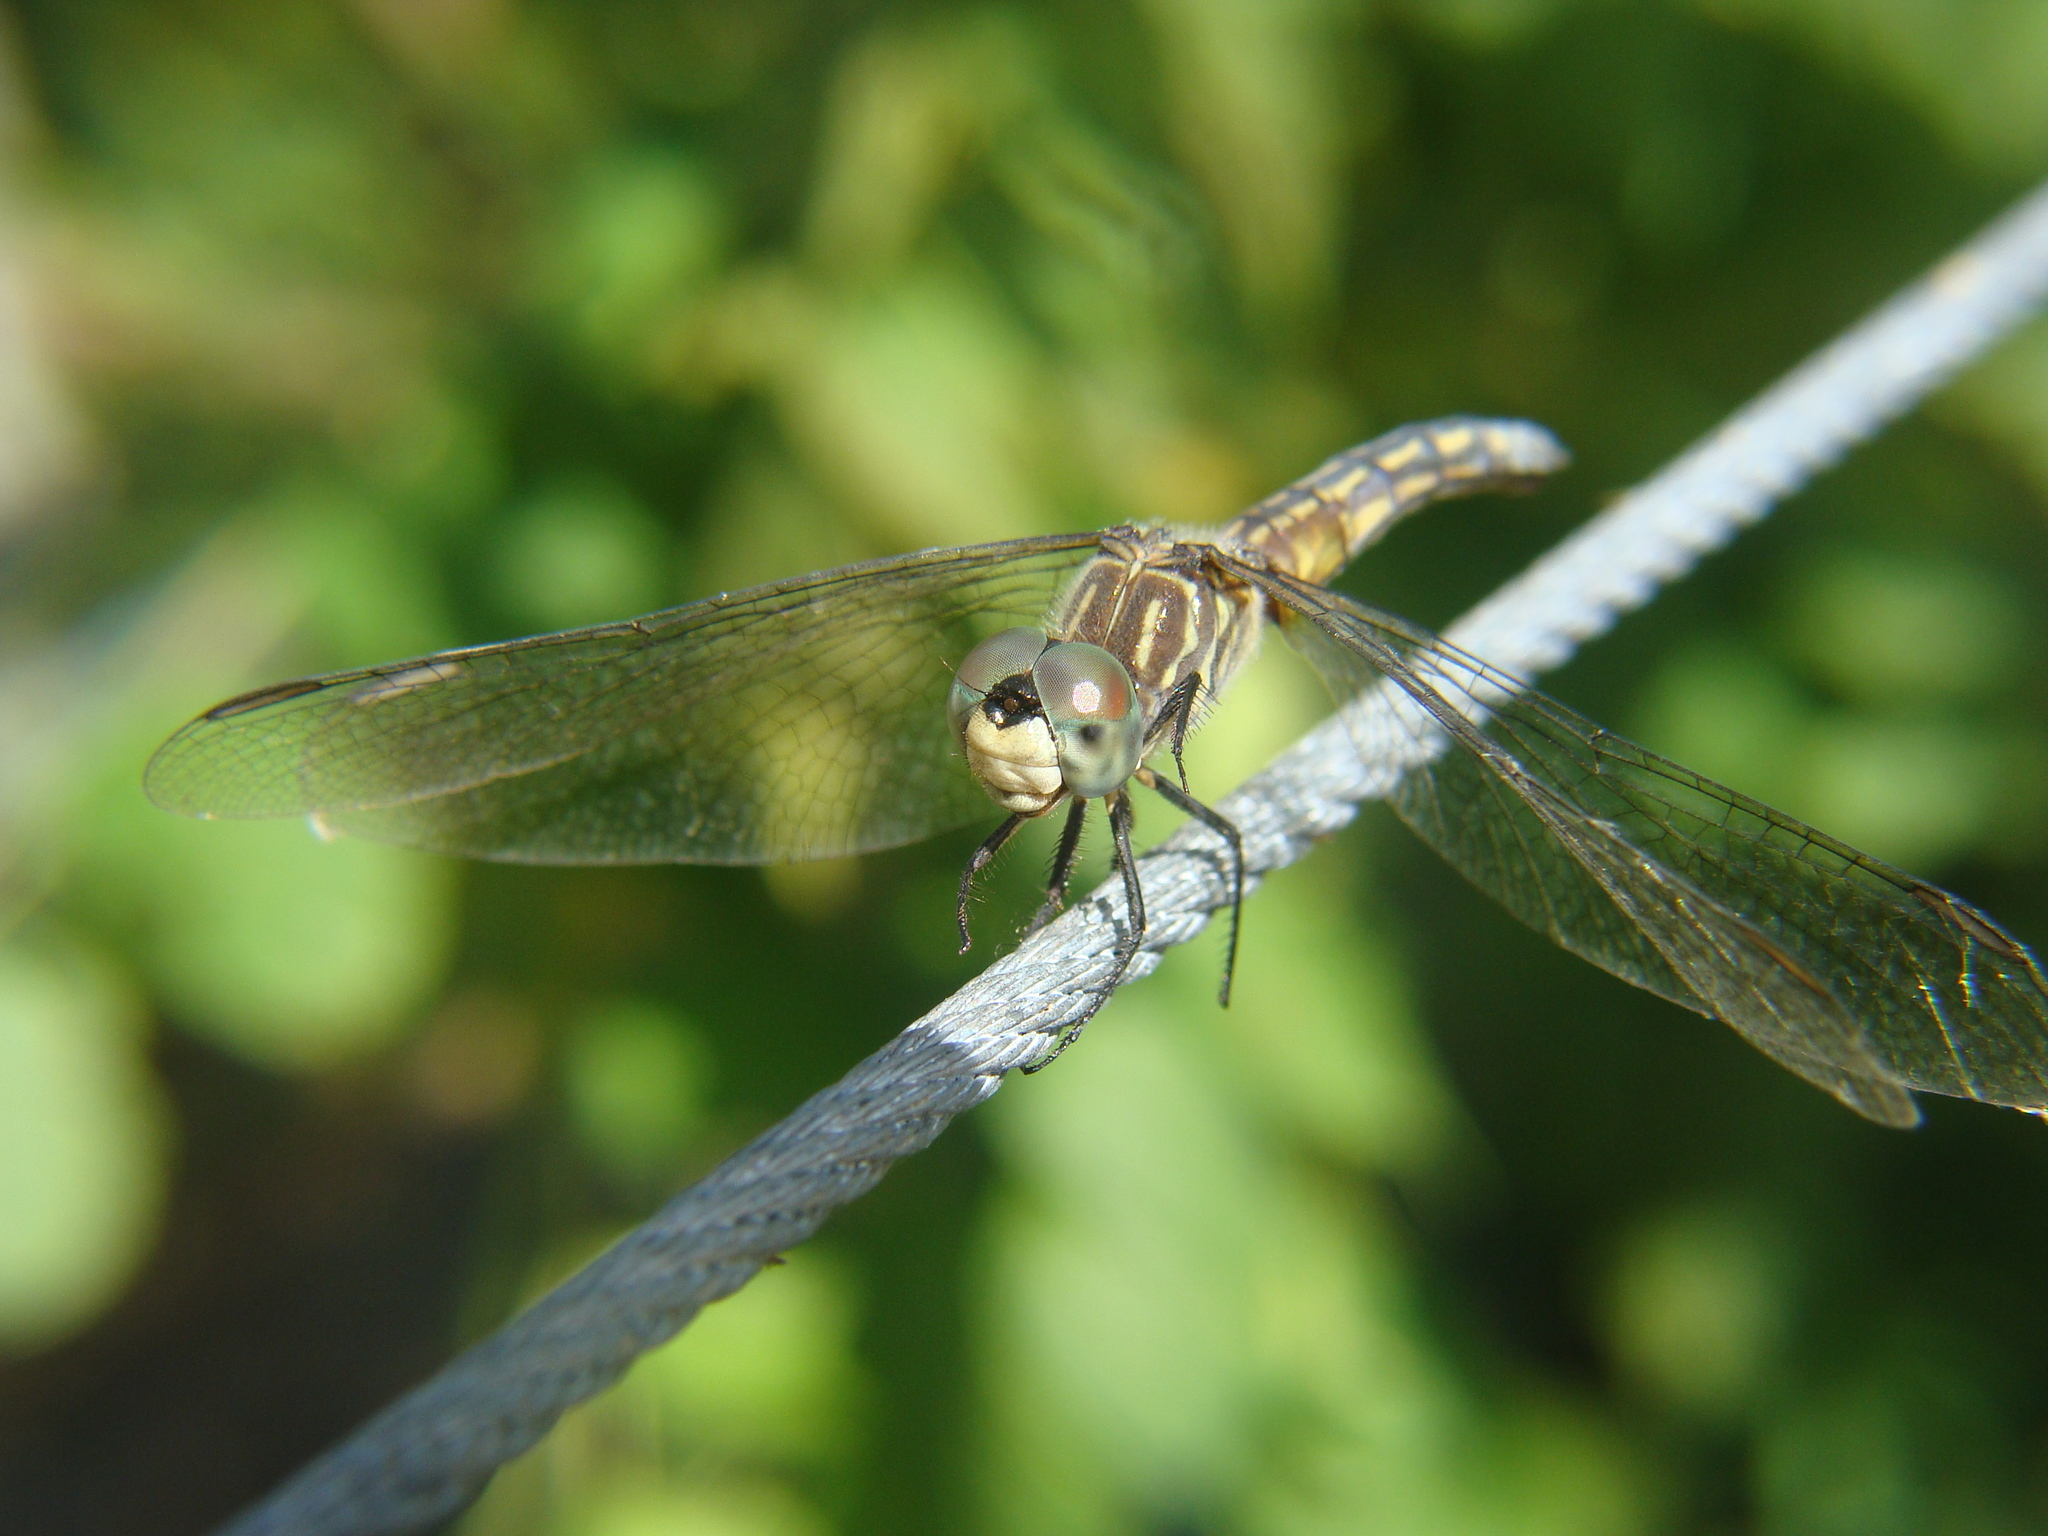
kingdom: Animalia
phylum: Arthropoda
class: Insecta
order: Odonata
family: Libellulidae
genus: Pachydiplax
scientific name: Pachydiplax longipennis
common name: Blue dasher
